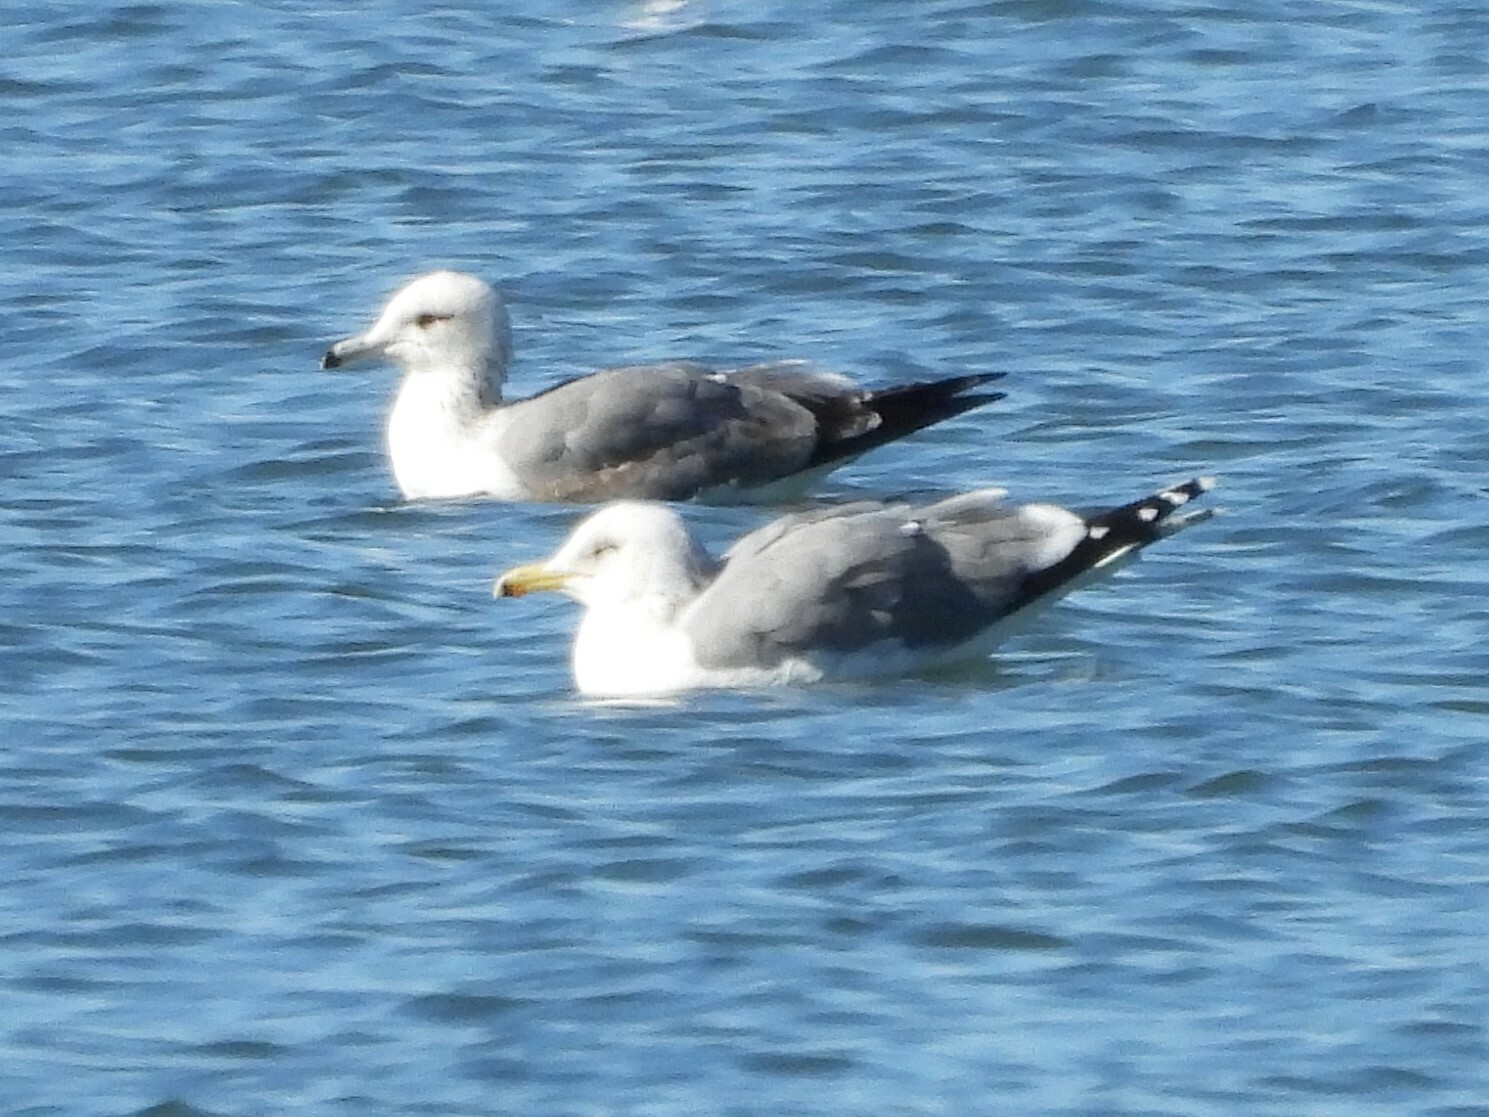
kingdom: Animalia
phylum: Chordata
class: Aves
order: Charadriiformes
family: Laridae
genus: Larus
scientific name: Larus californicus
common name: California gull
